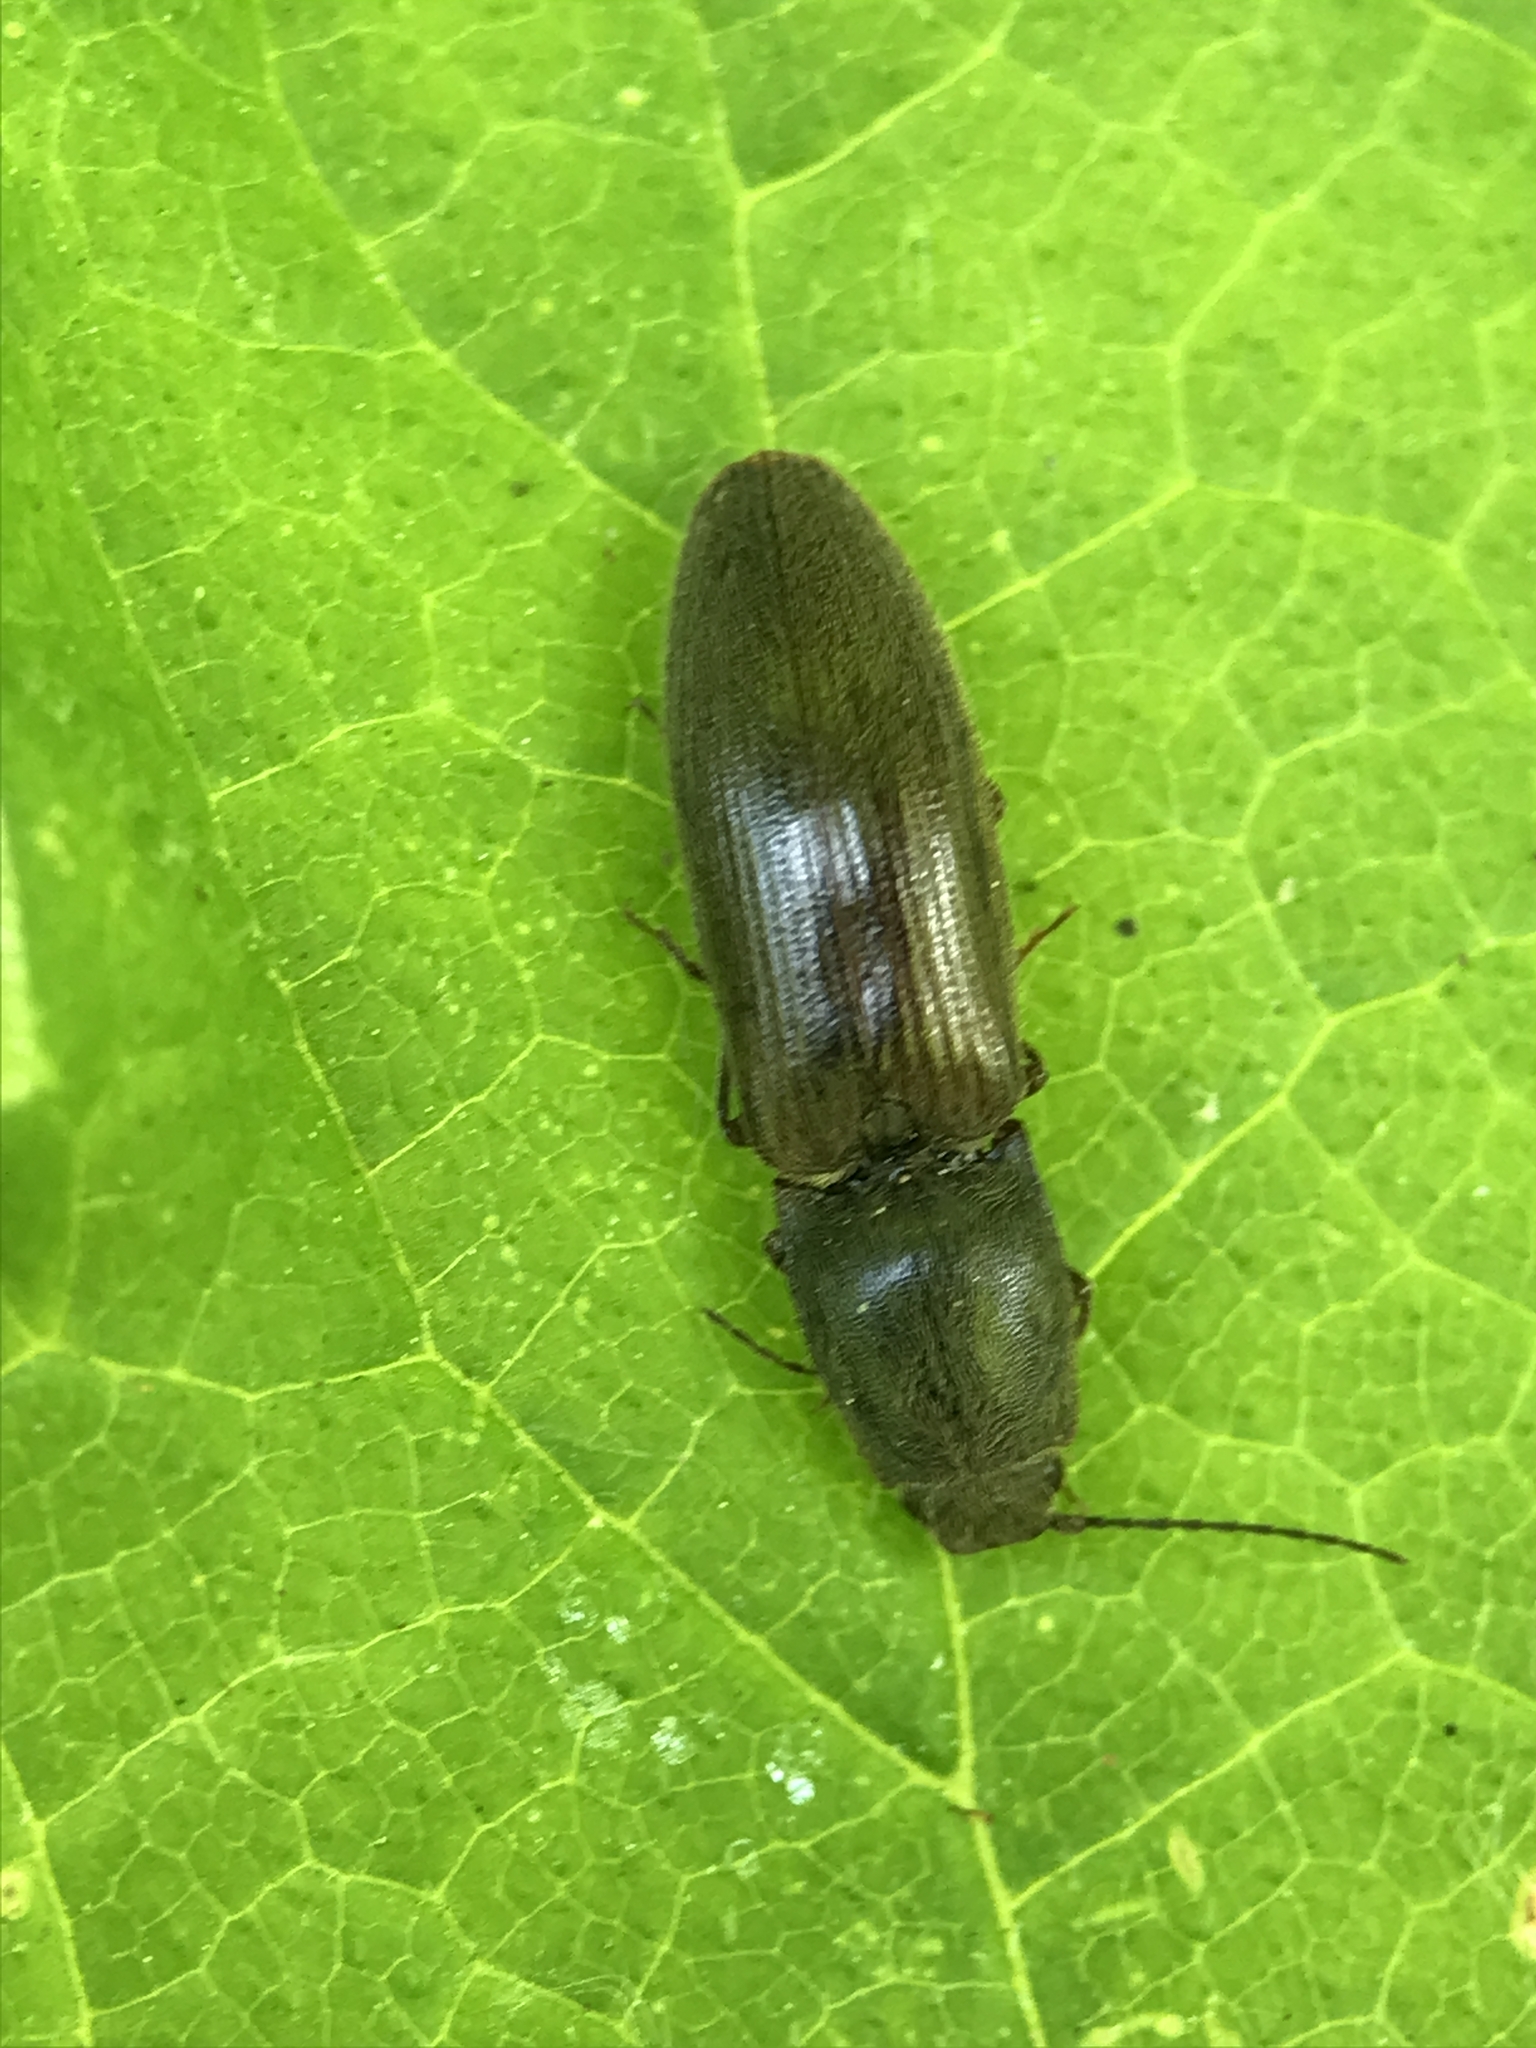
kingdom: Animalia
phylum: Arthropoda
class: Insecta
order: Coleoptera
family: Elateridae
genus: Athous
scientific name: Athous haemorrhoidalis
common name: Red-brown click beetle
